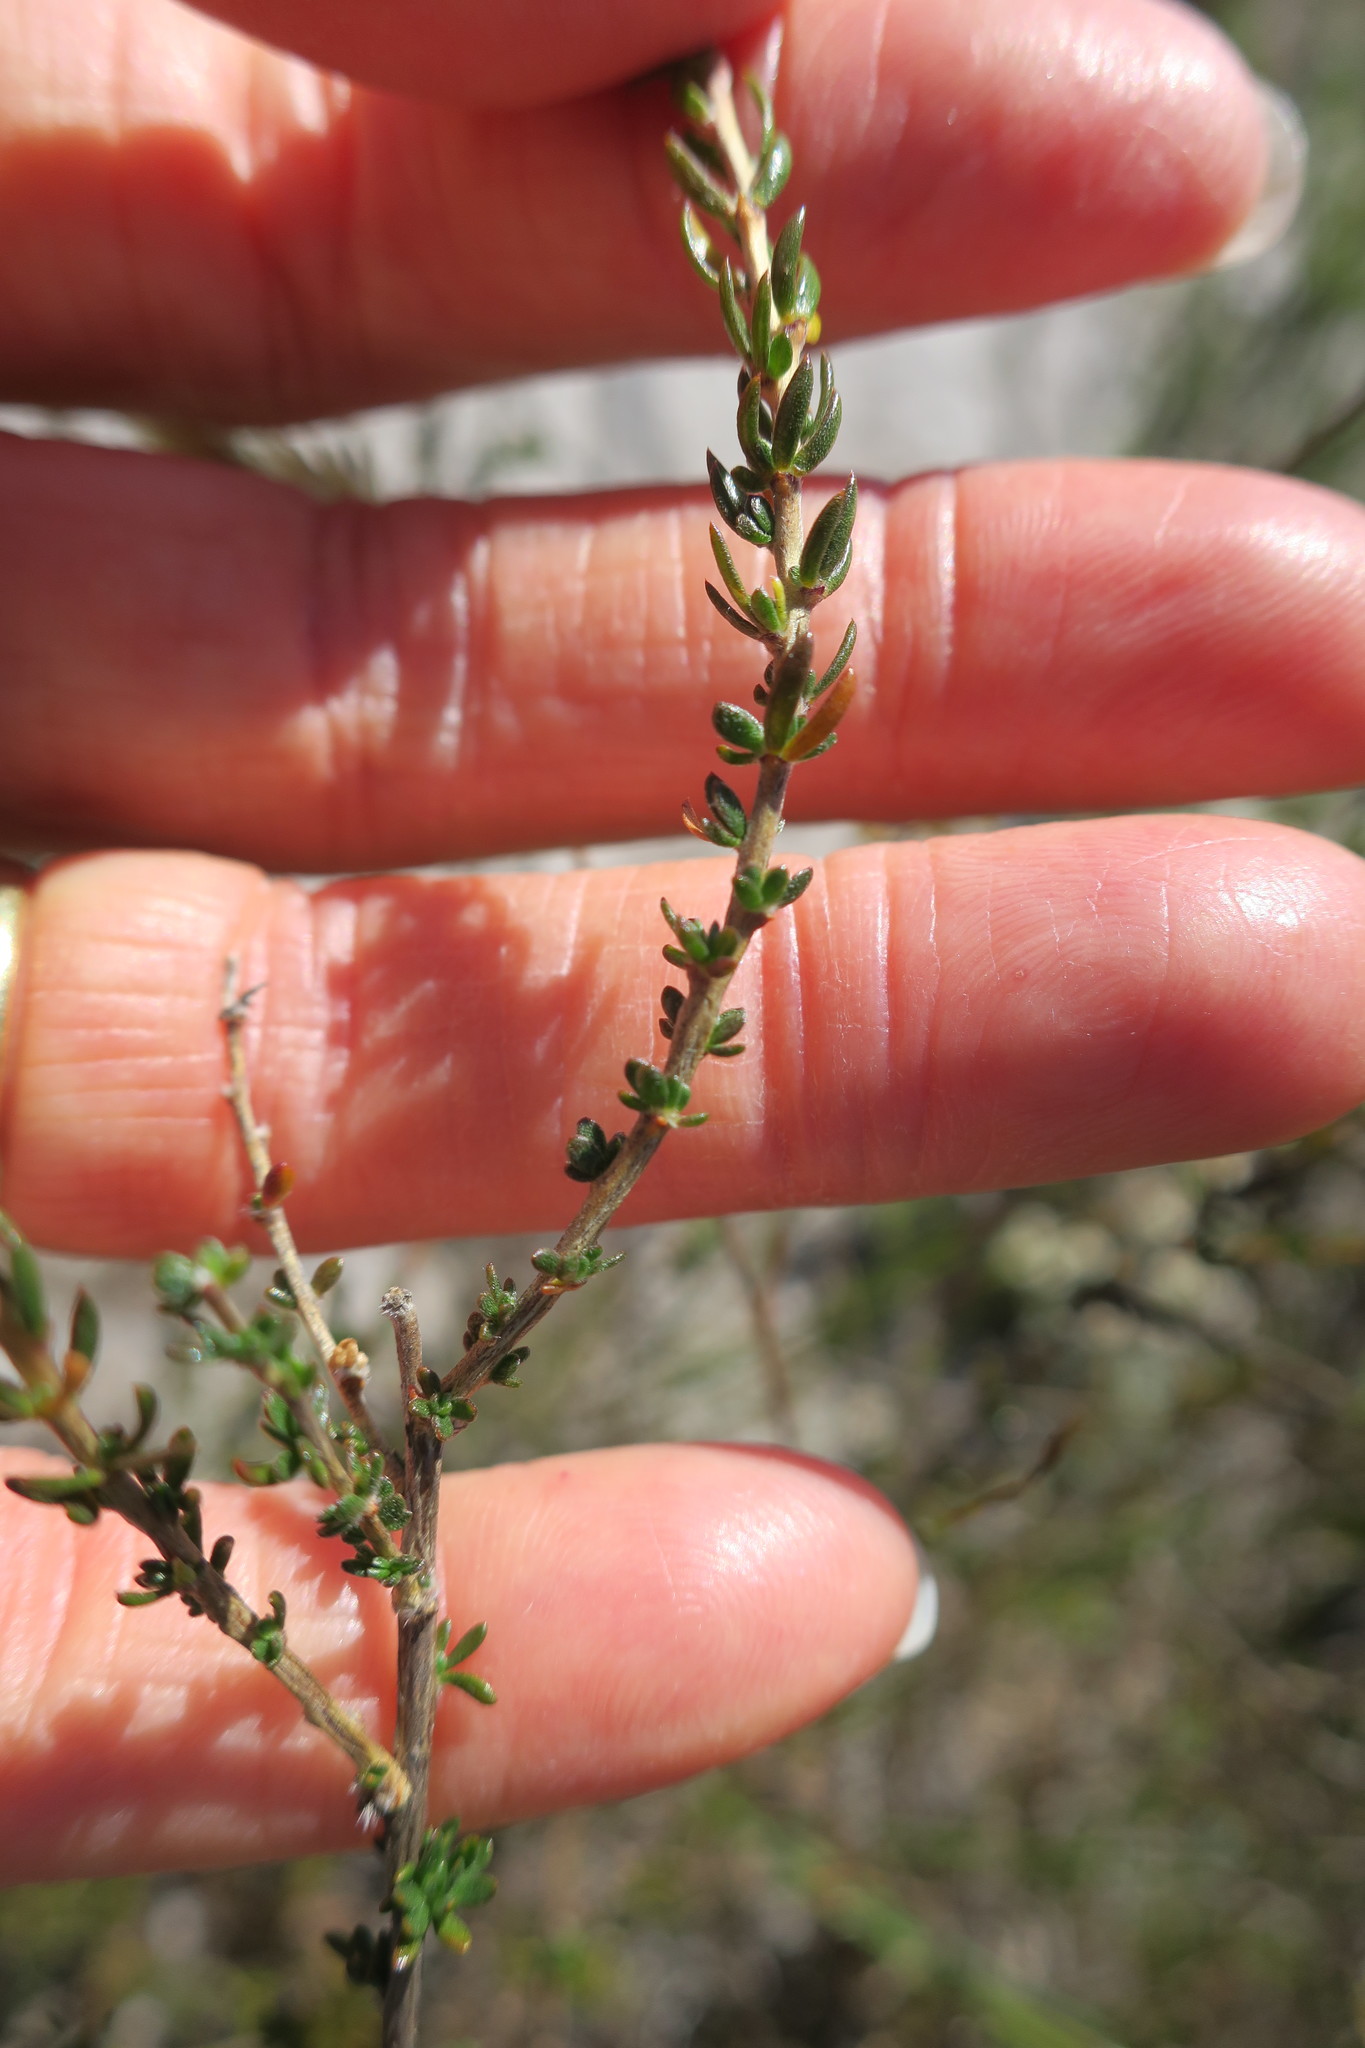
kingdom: Plantae
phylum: Tracheophyta
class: Magnoliopsida
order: Fabales
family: Fabaceae
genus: Aspalathus
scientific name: Aspalathus tridentata
